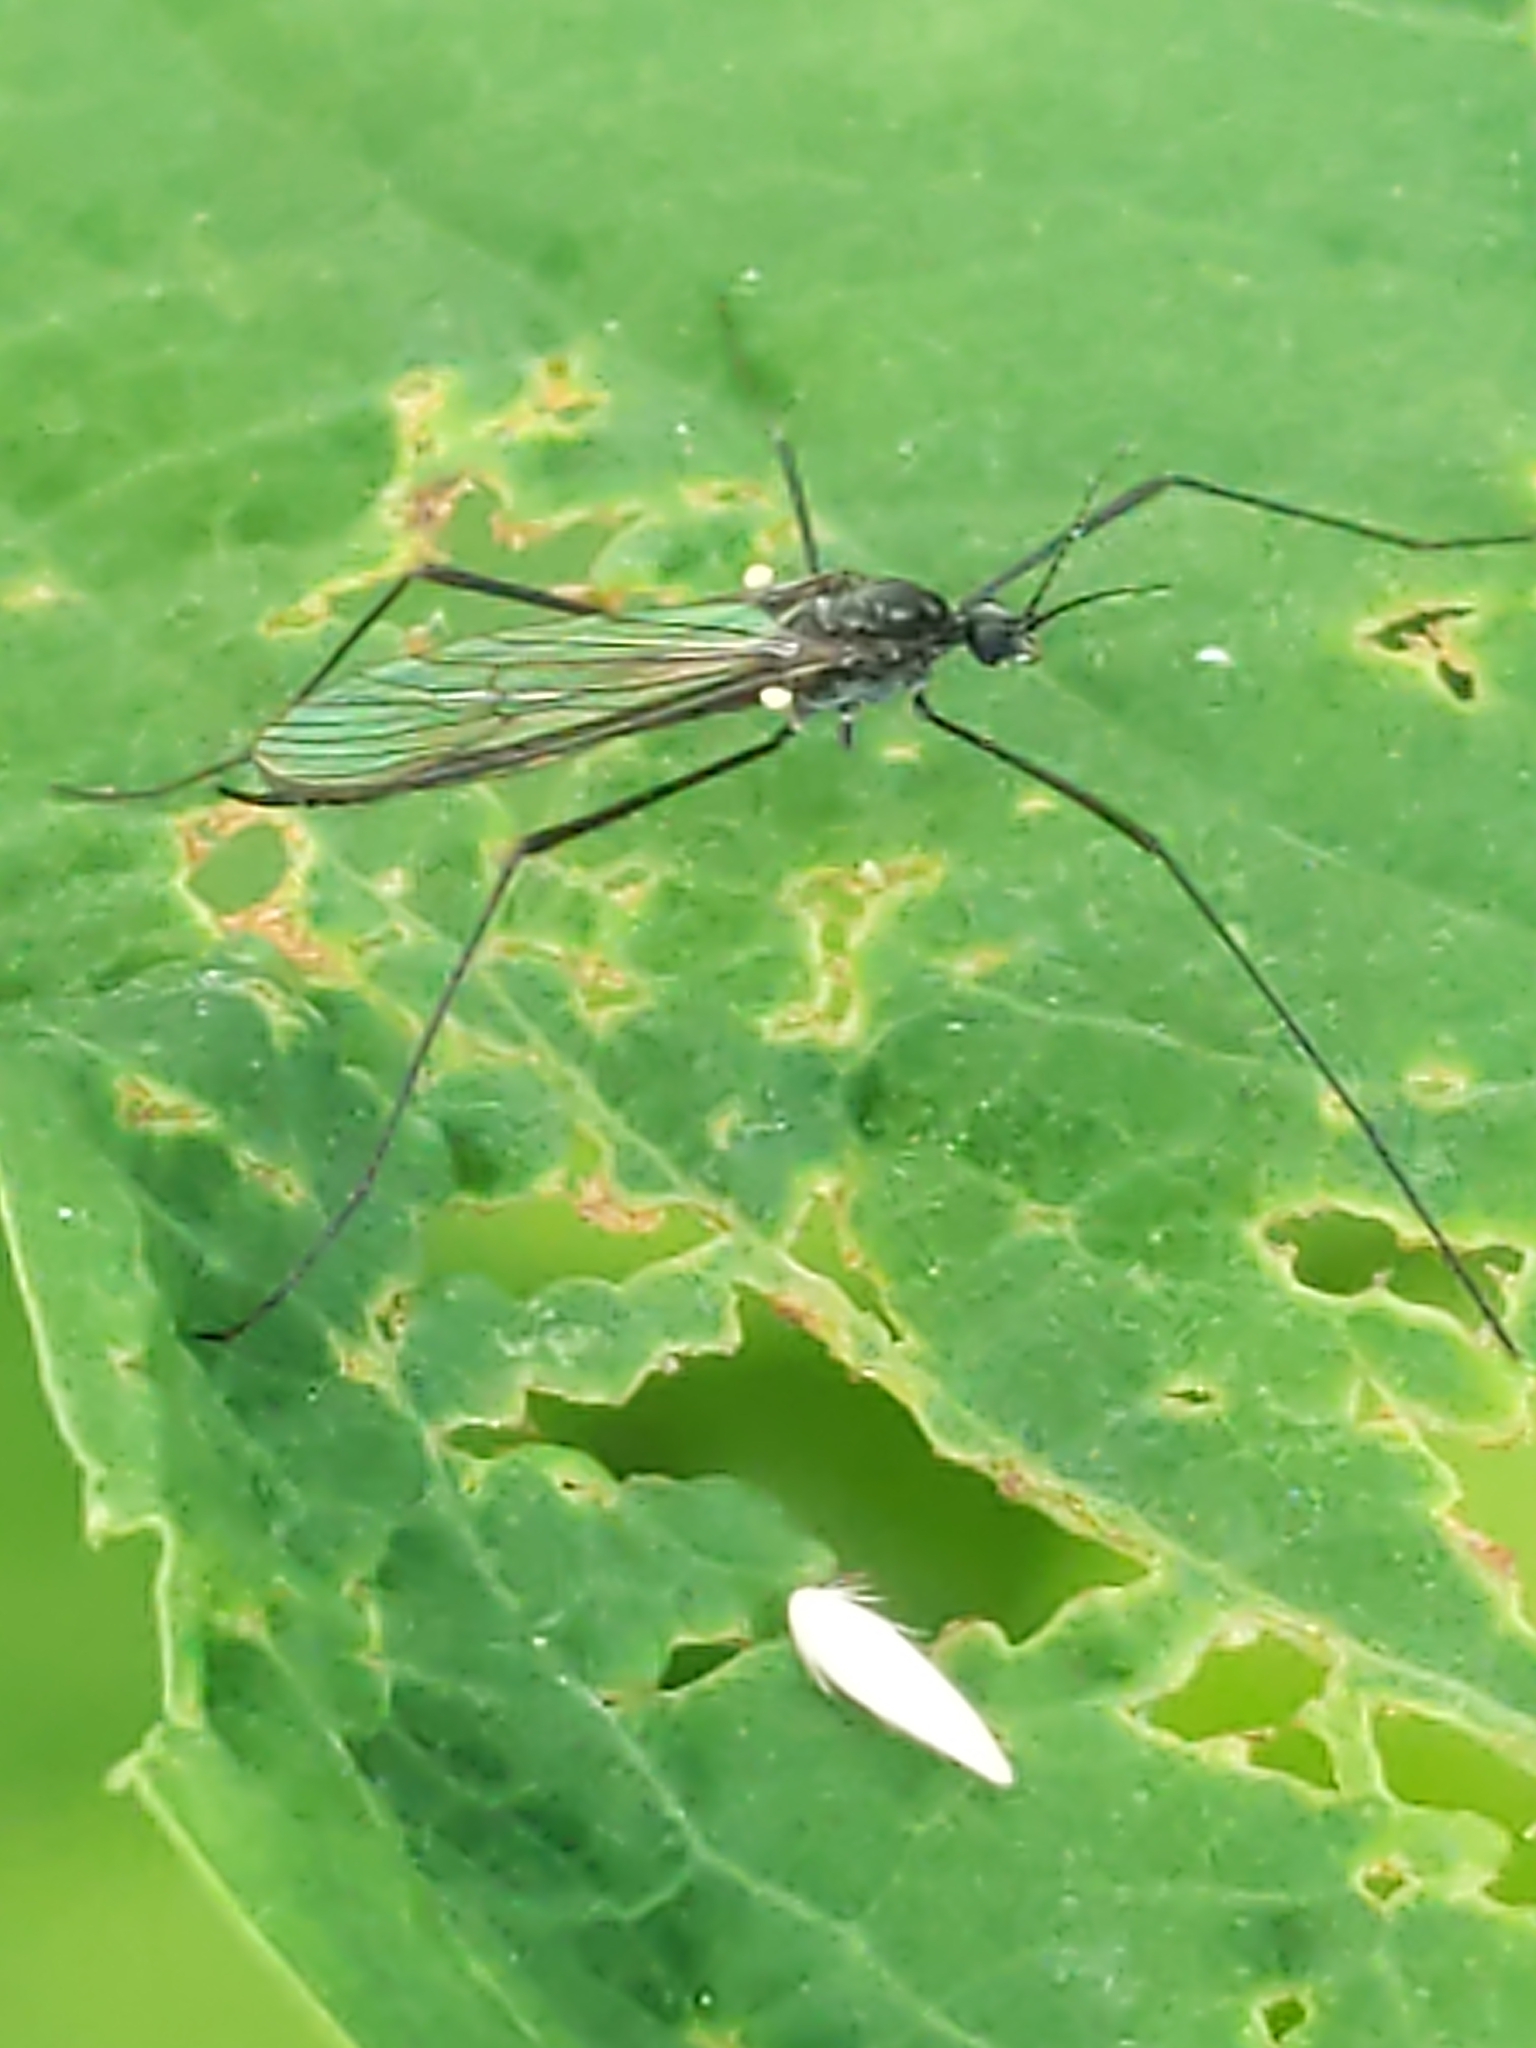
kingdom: Animalia
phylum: Arthropoda
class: Insecta
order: Diptera
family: Limoniidae
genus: Gnophomyia
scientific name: Gnophomyia tristissima
